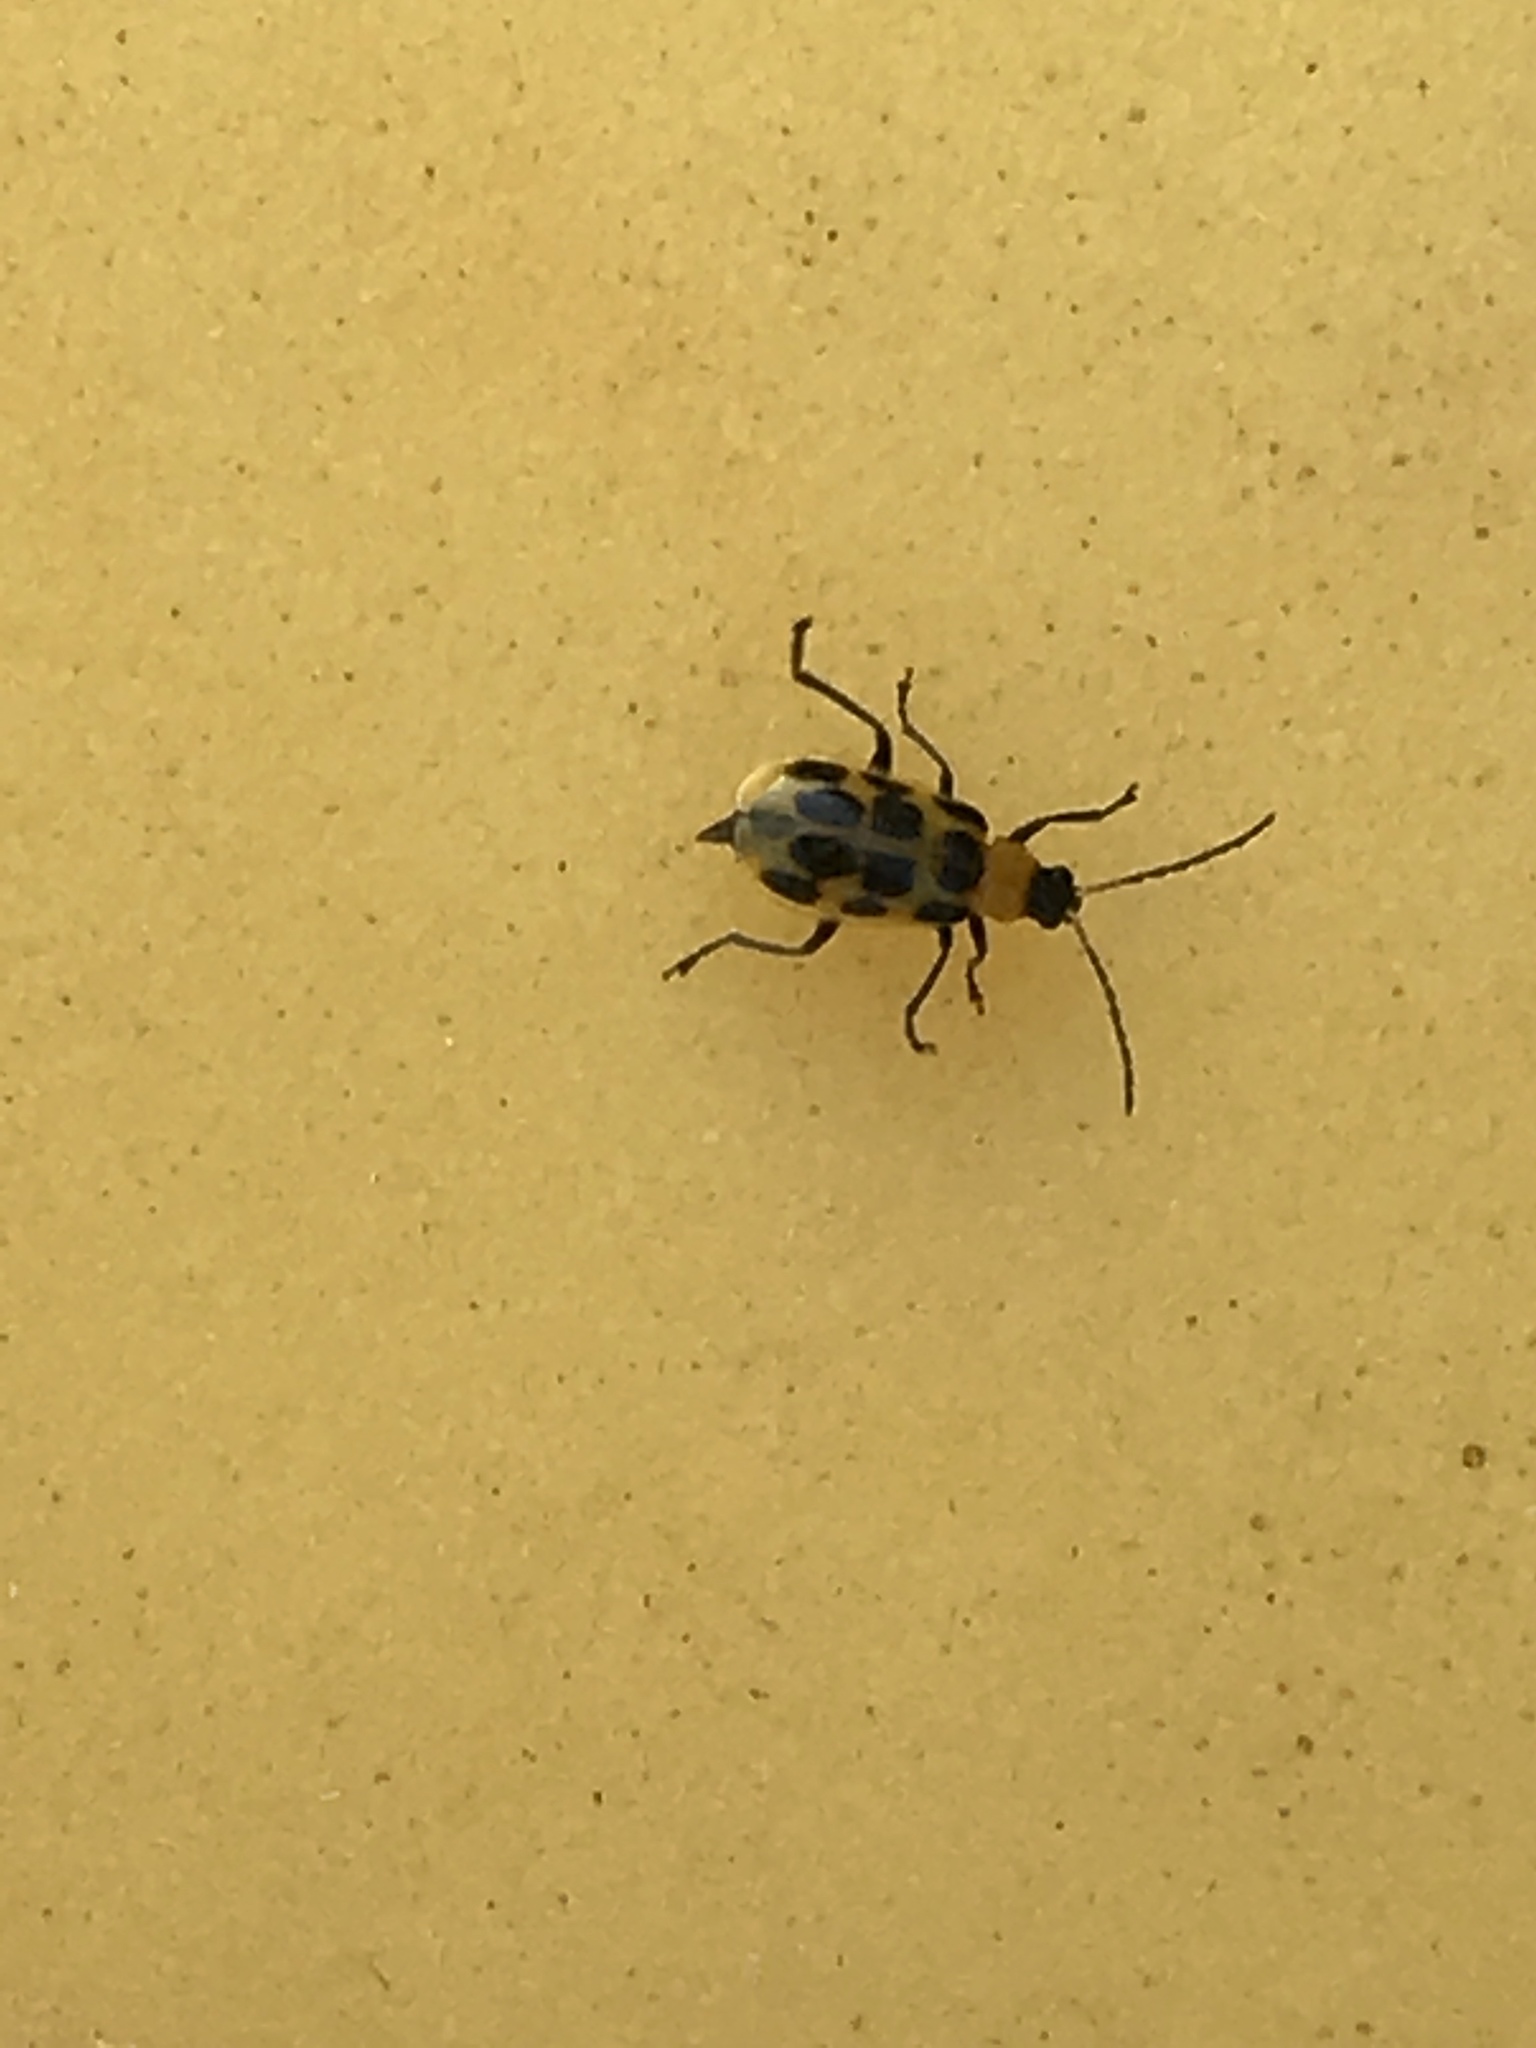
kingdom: Animalia
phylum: Arthropoda
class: Insecta
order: Coleoptera
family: Chrysomelidae
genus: Diabrotica
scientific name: Diabrotica undecimpunctata
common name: Spotted cucumber beetle
